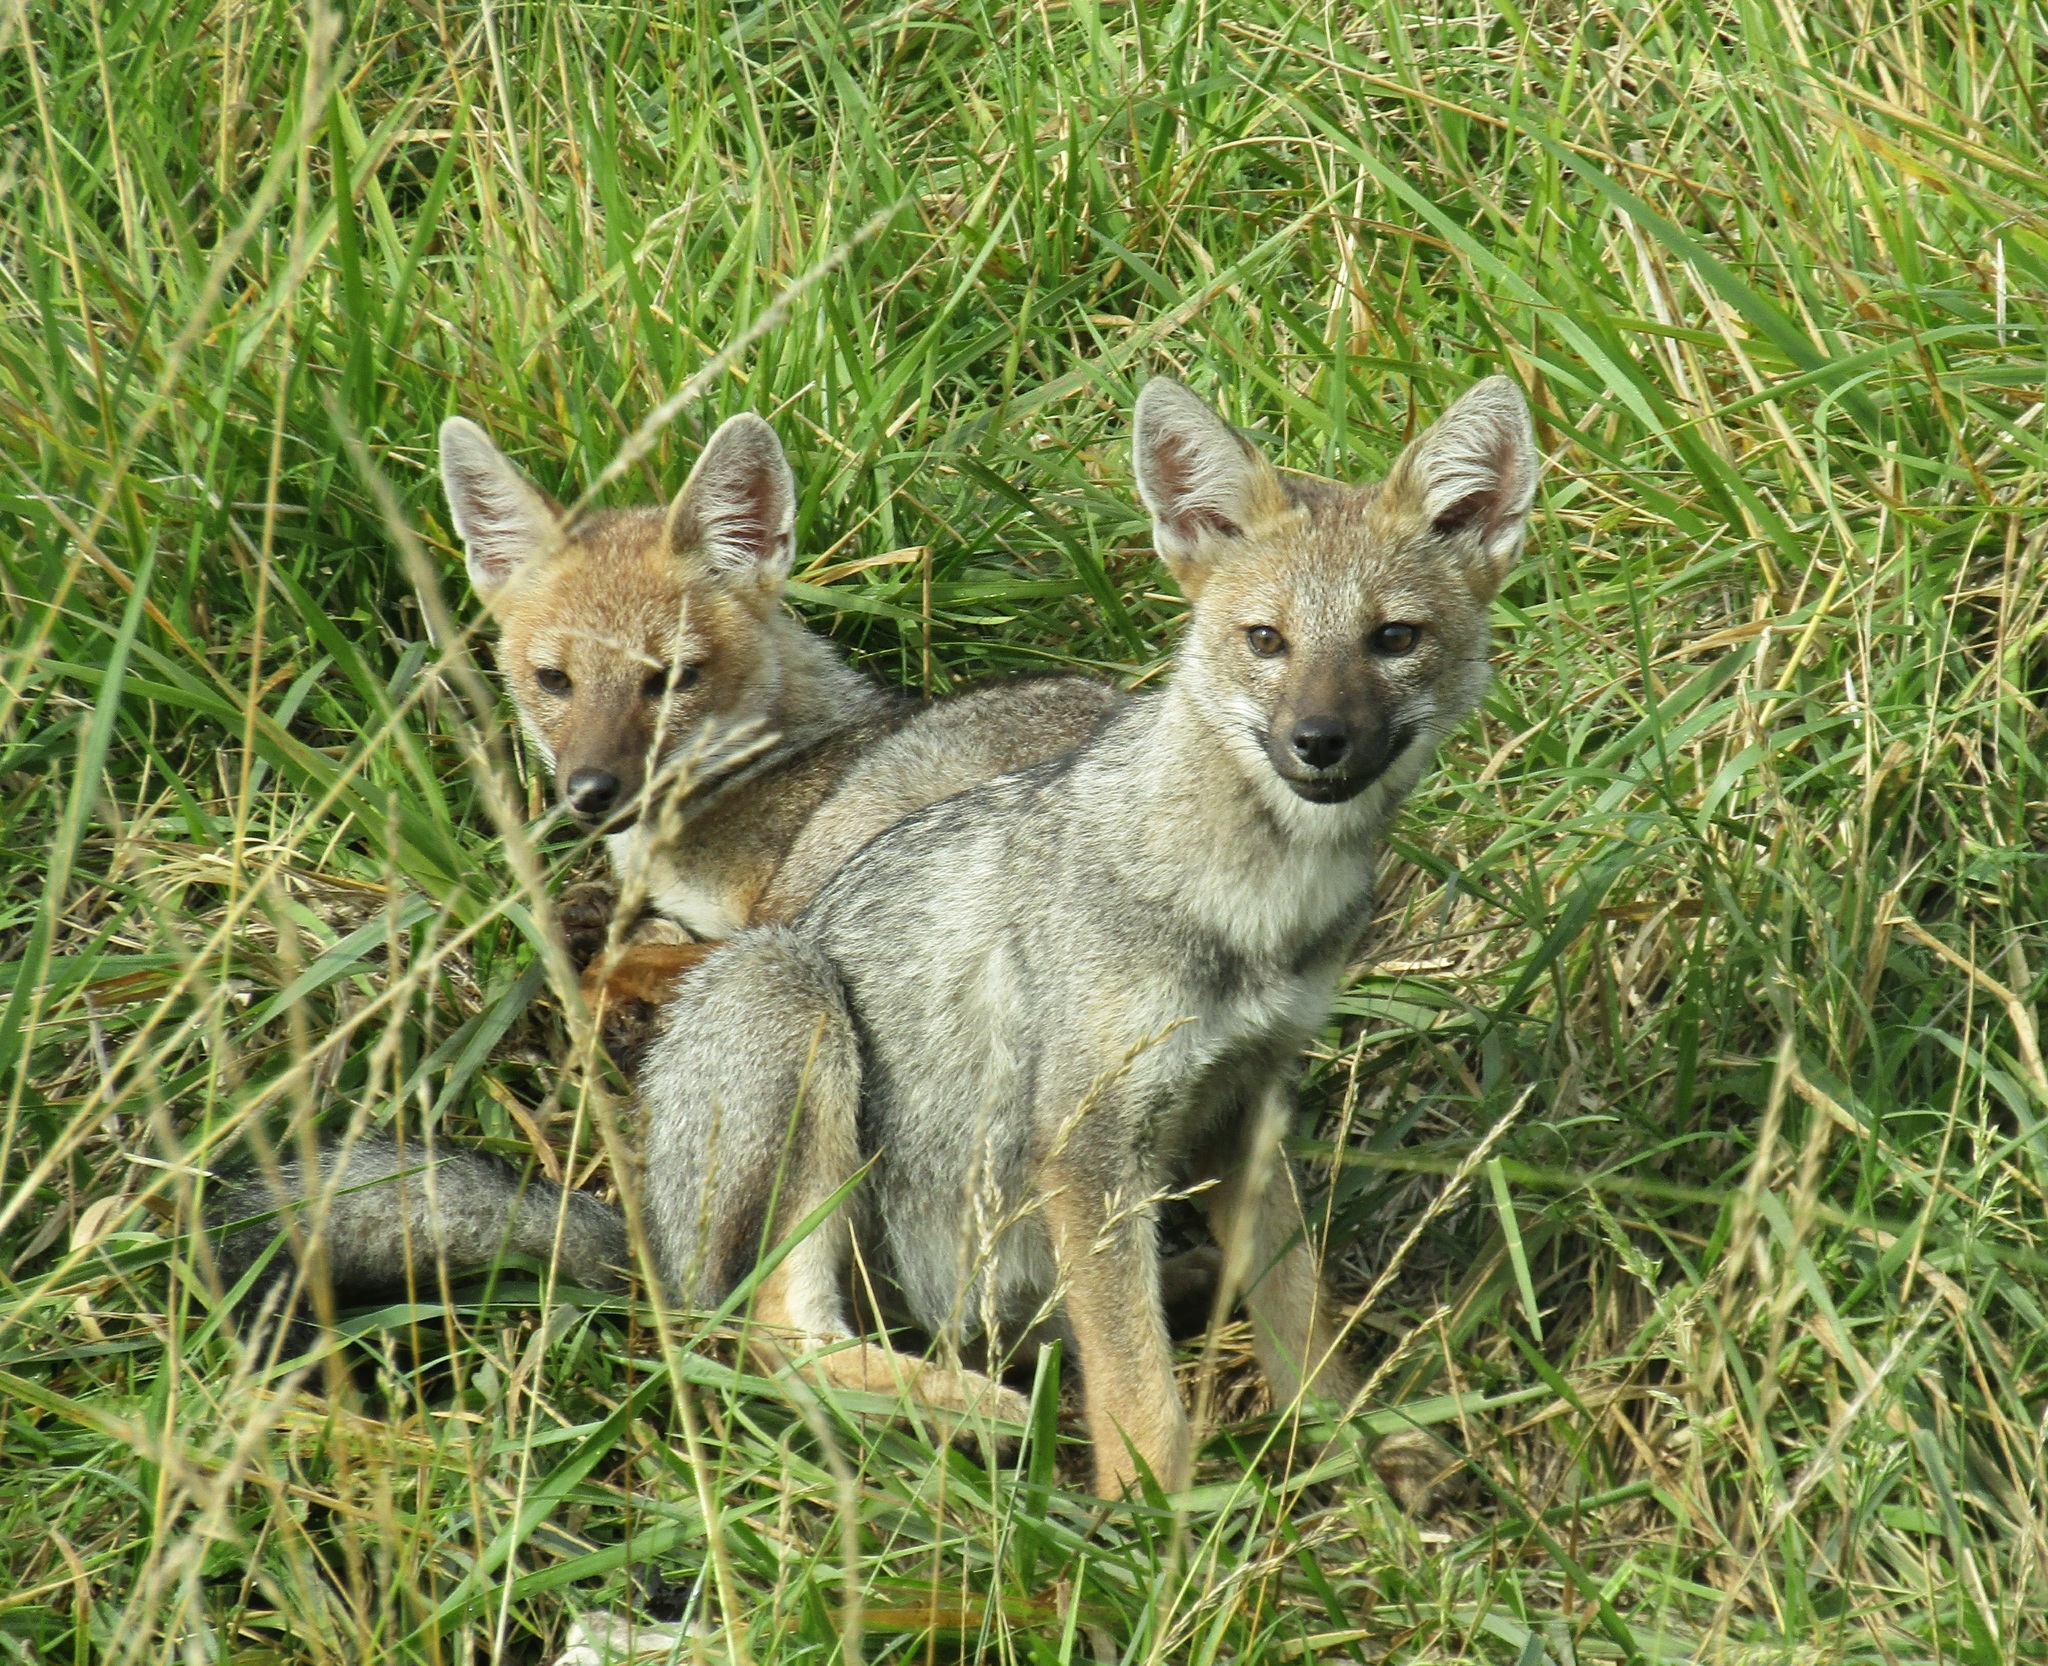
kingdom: Animalia
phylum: Chordata
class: Mammalia
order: Carnivora
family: Canidae
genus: Lycalopex
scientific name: Lycalopex gymnocercus
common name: Pampas fox
